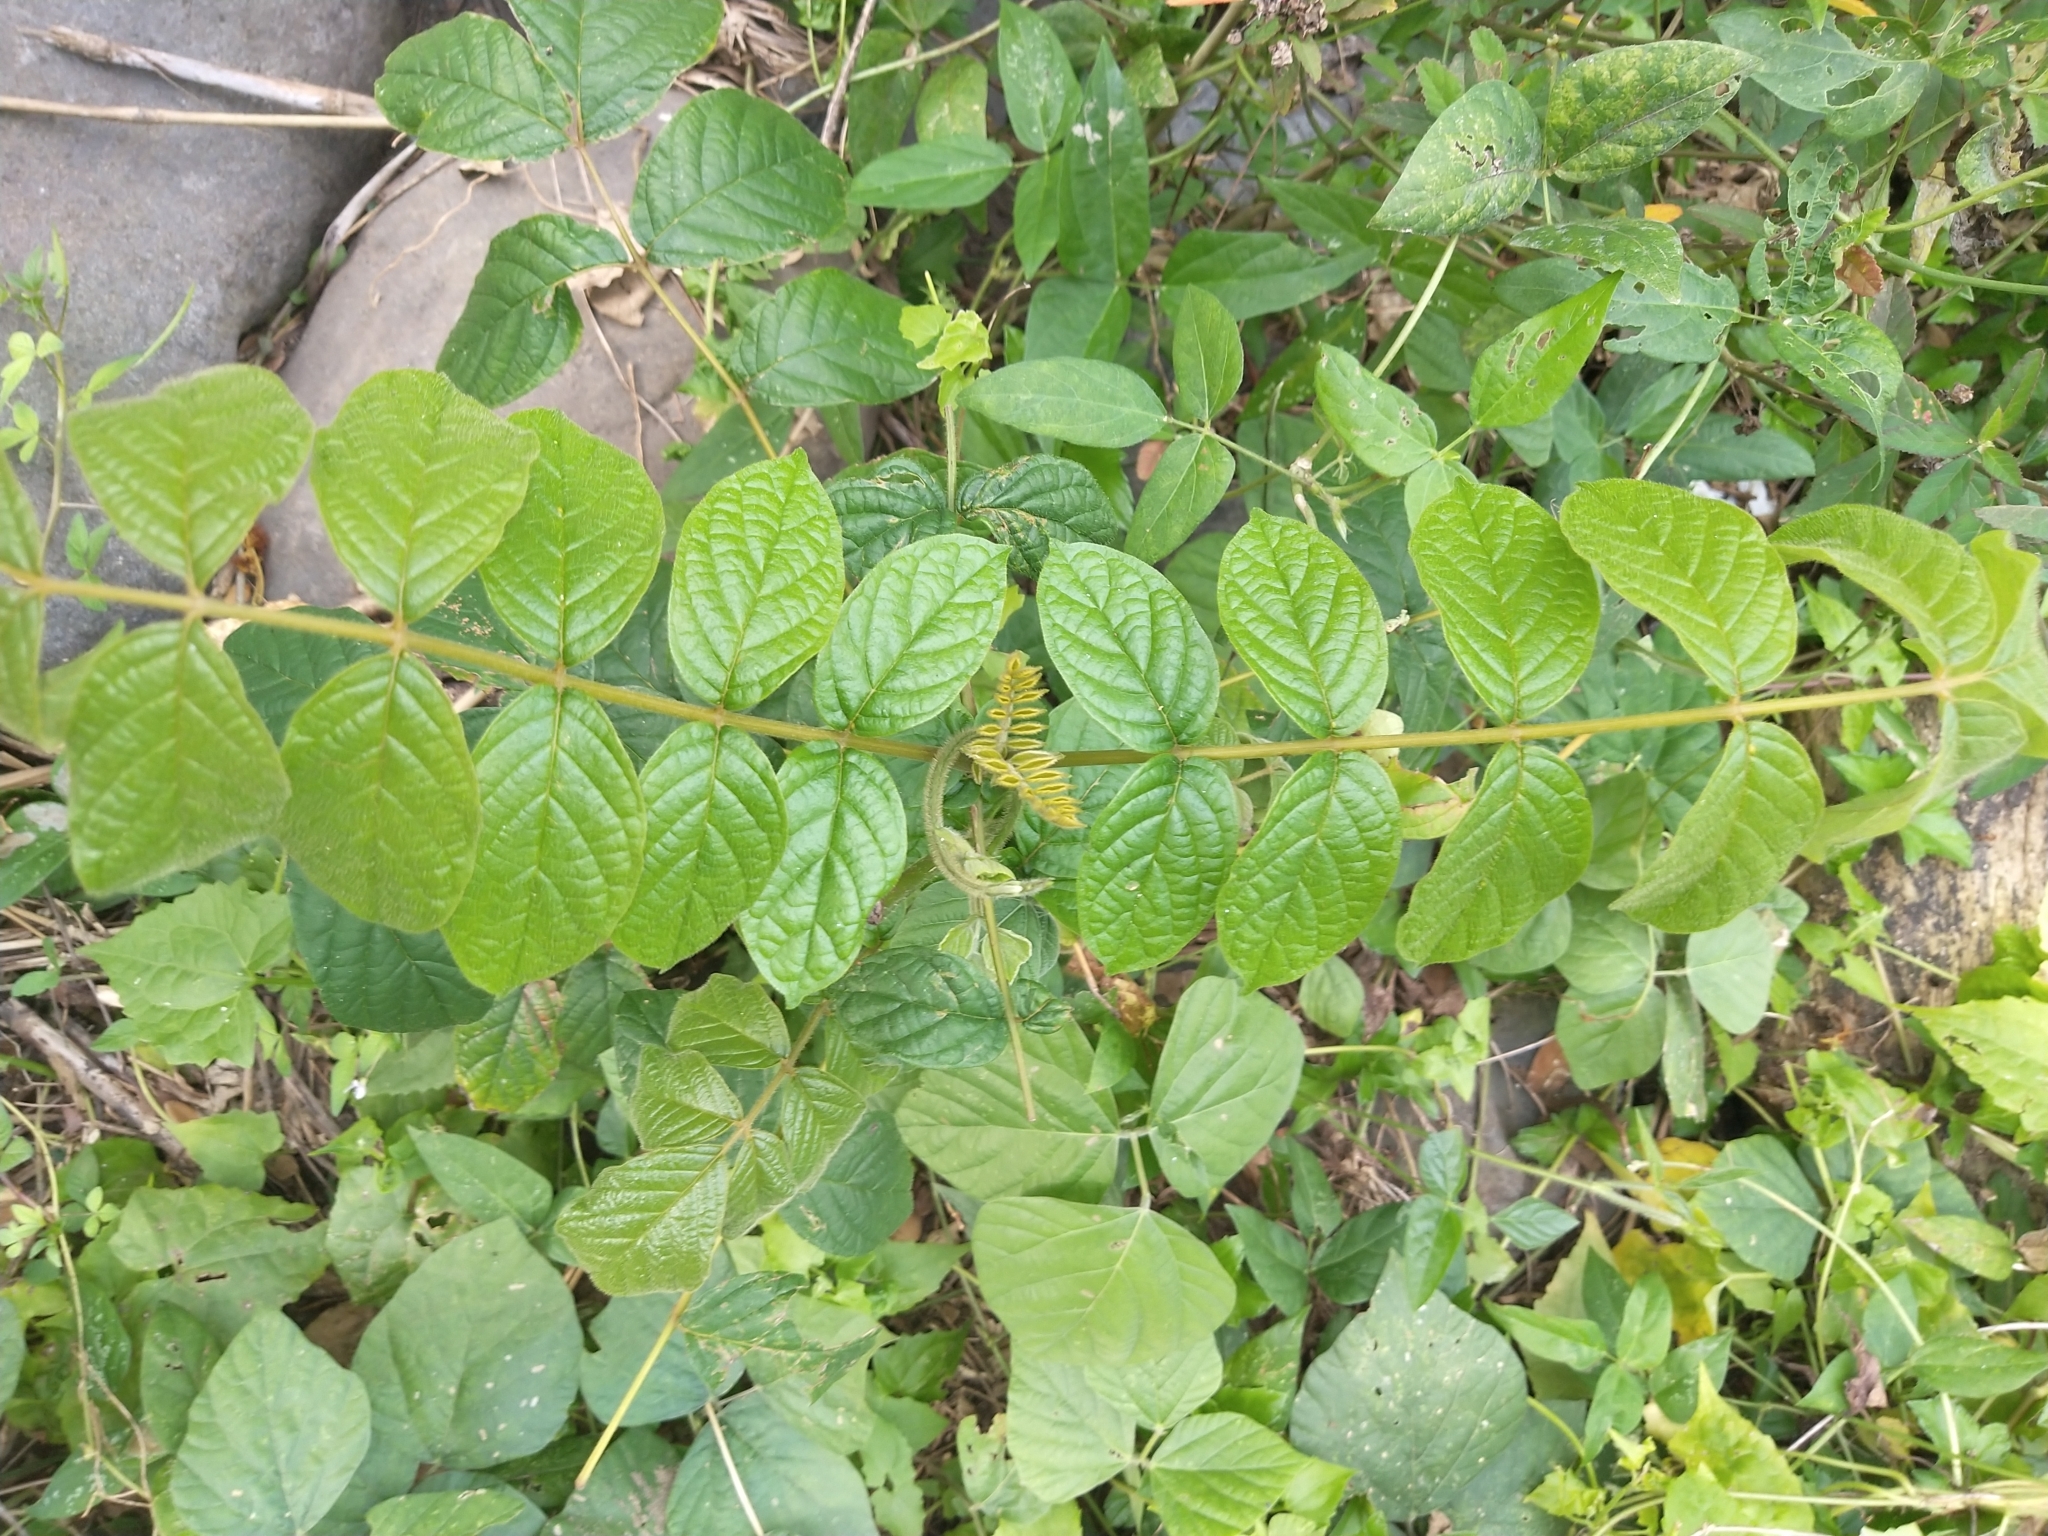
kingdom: Plantae
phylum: Tracheophyta
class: Magnoliopsida
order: Lamiales
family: Bignoniaceae
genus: Spathodea
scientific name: Spathodea campanulata
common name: African tuliptree
